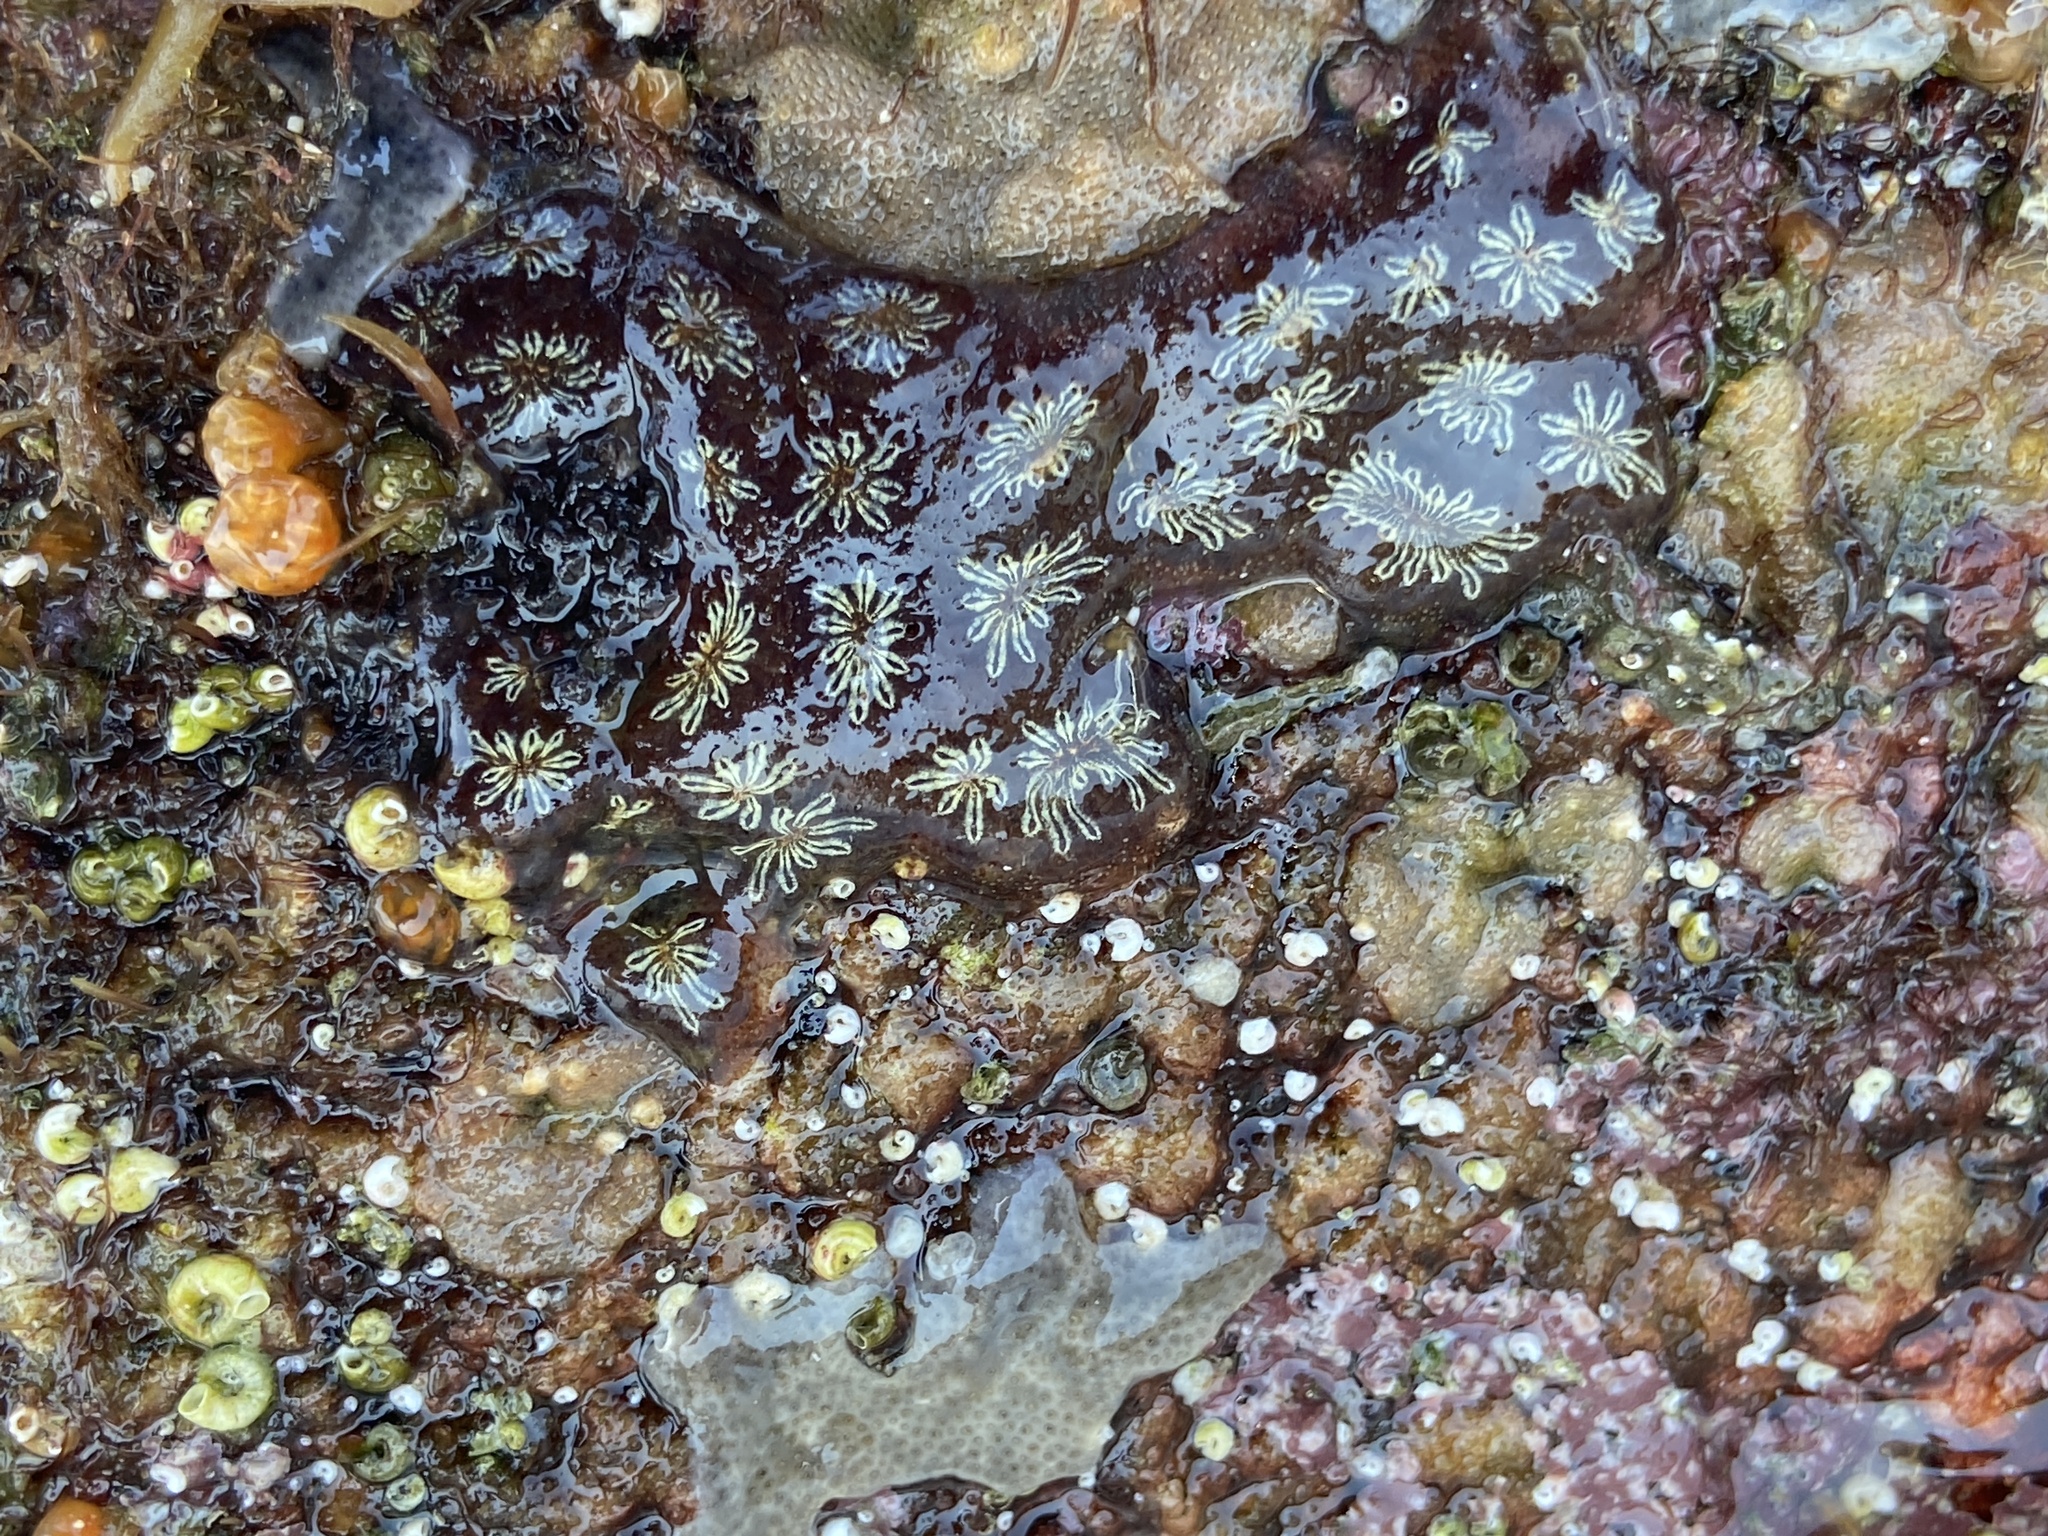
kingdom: Animalia
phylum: Chordata
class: Ascidiacea
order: Stolidobranchia
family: Styelidae
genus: Botryllus
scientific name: Botryllus schlosseri
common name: Golden star tunicate
